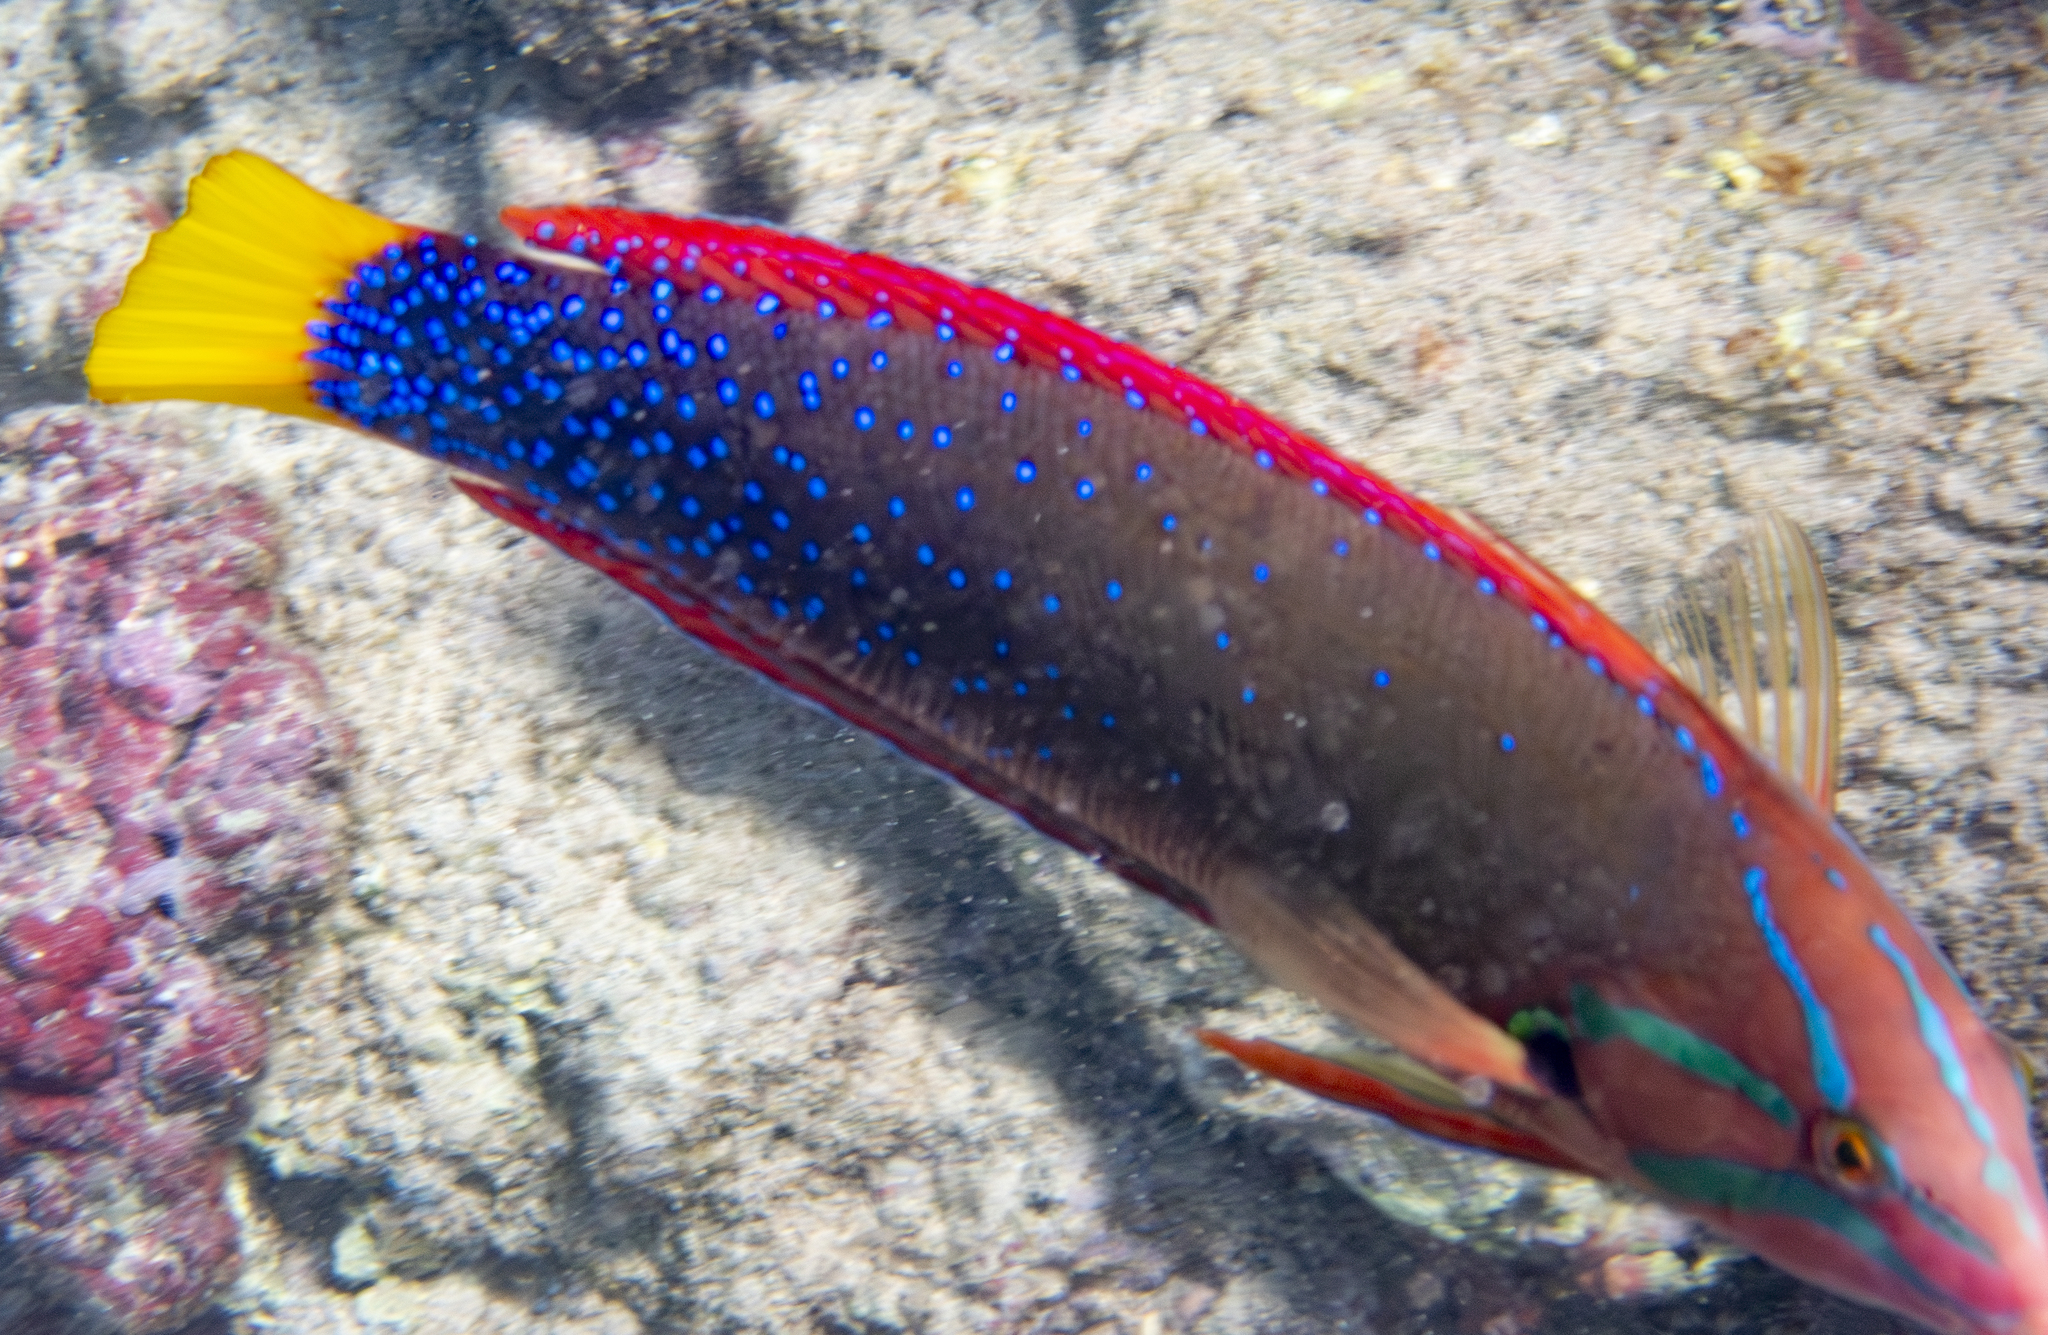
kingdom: Animalia
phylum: Chordata
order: Perciformes
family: Labridae
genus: Coris
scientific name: Coris gaimard
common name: Yellowtail coris
